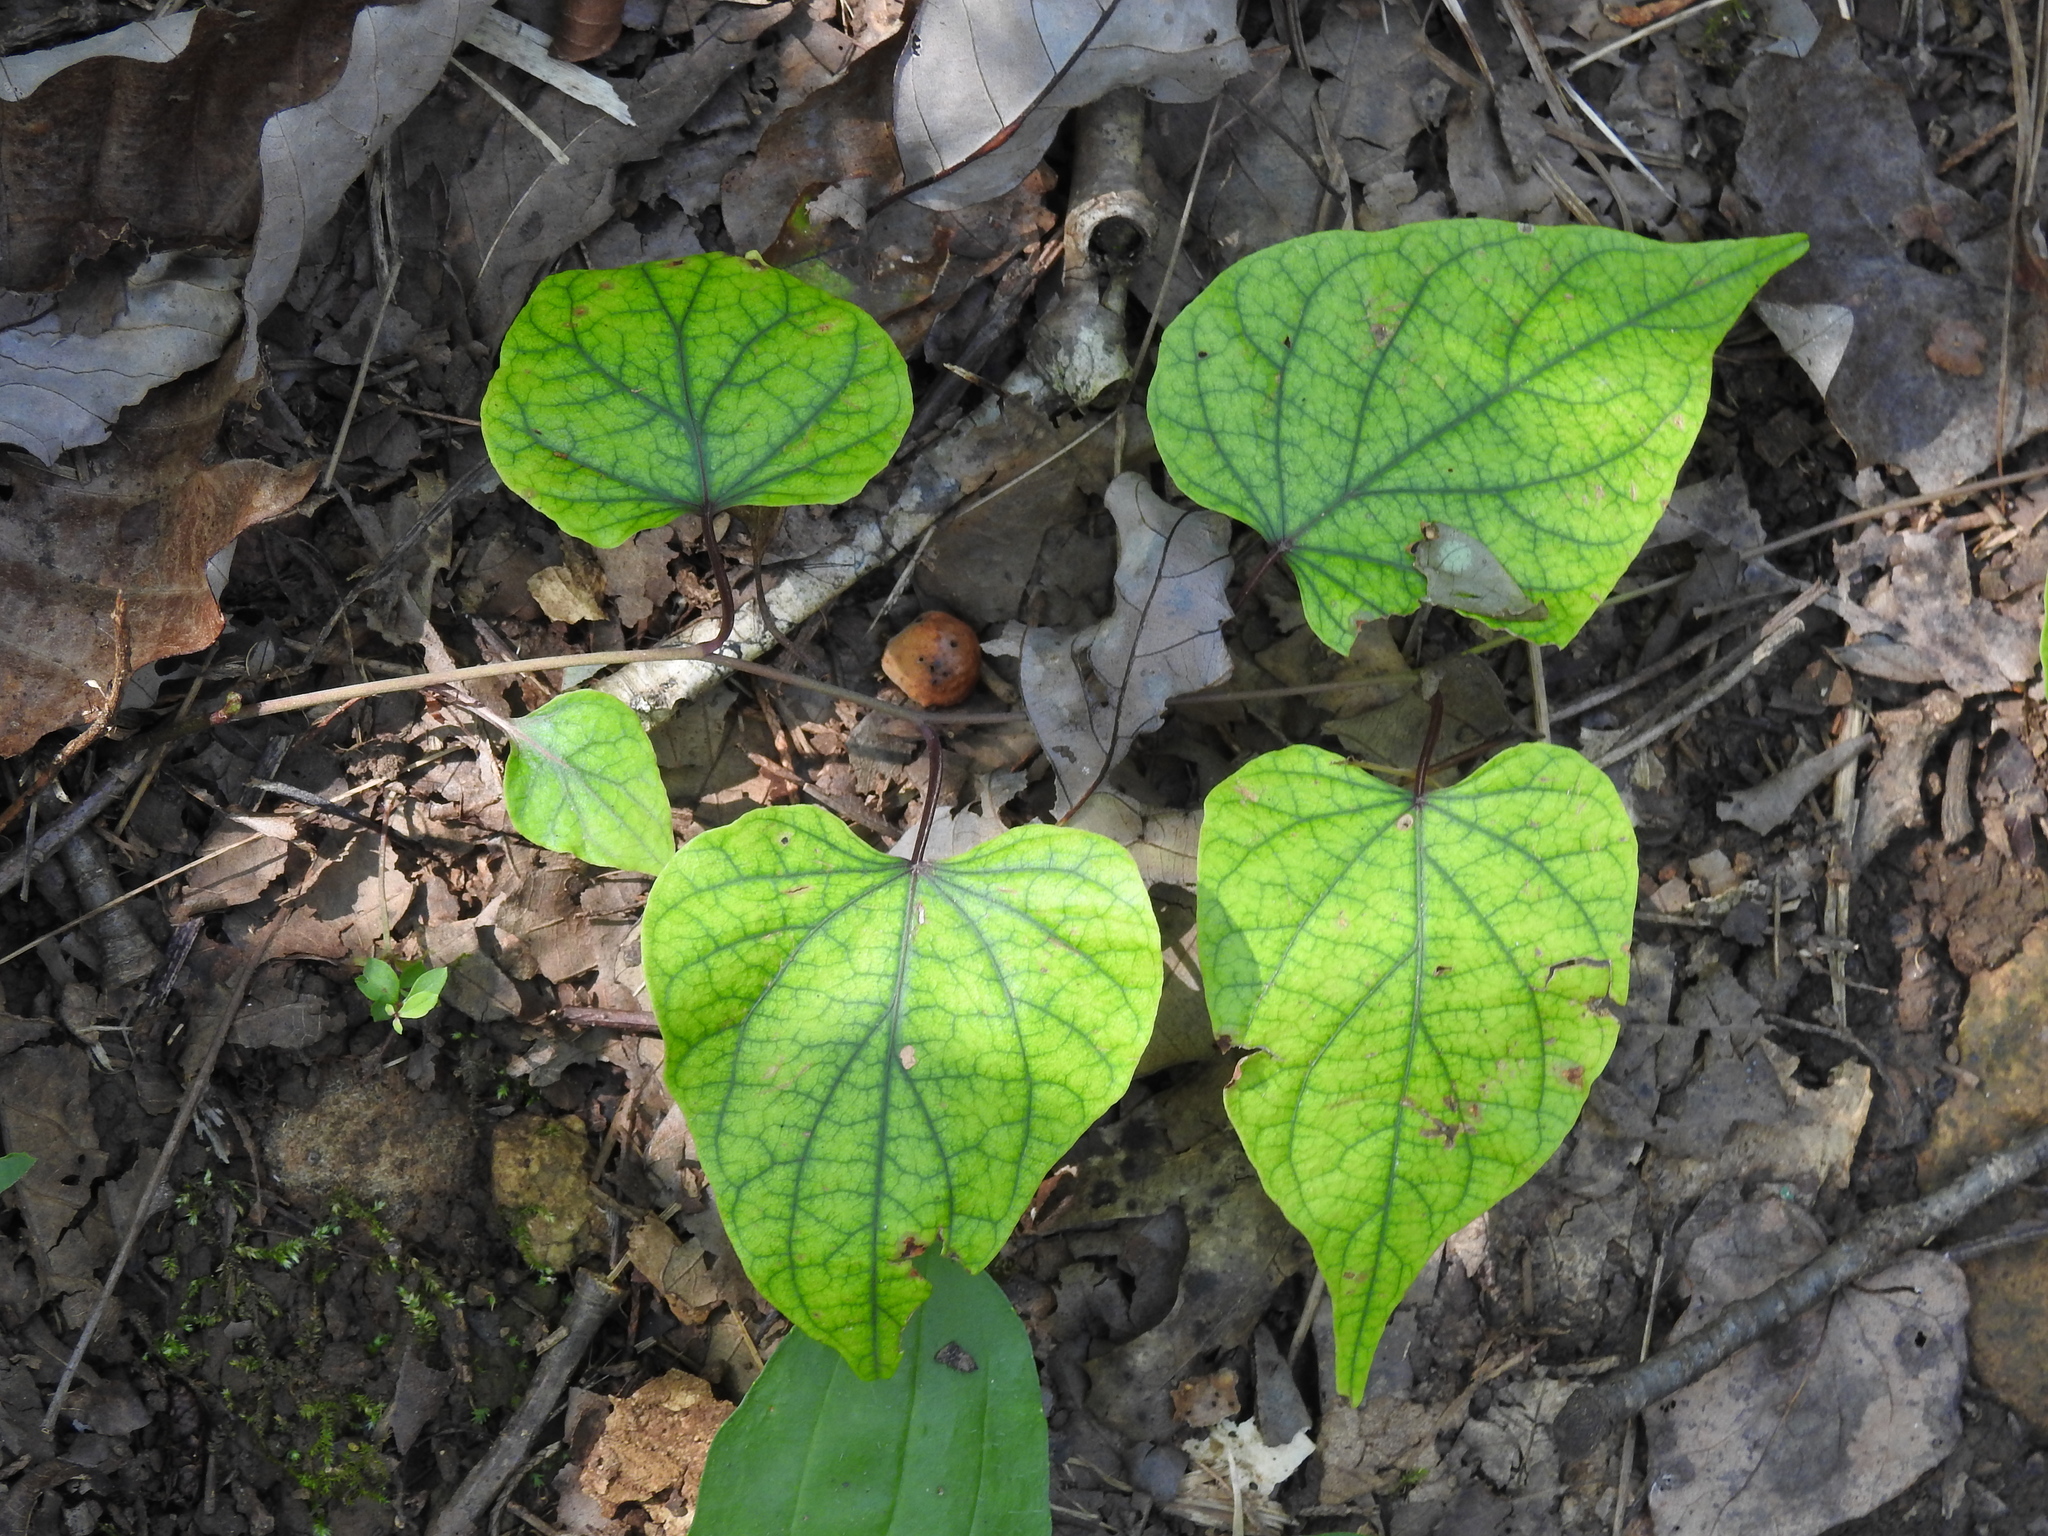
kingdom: Plantae
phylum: Tracheophyta
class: Magnoliopsida
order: Solanales
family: Convolvulaceae
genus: Ipomoea
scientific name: Ipomoea pandurata
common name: Man-of-the-earth
